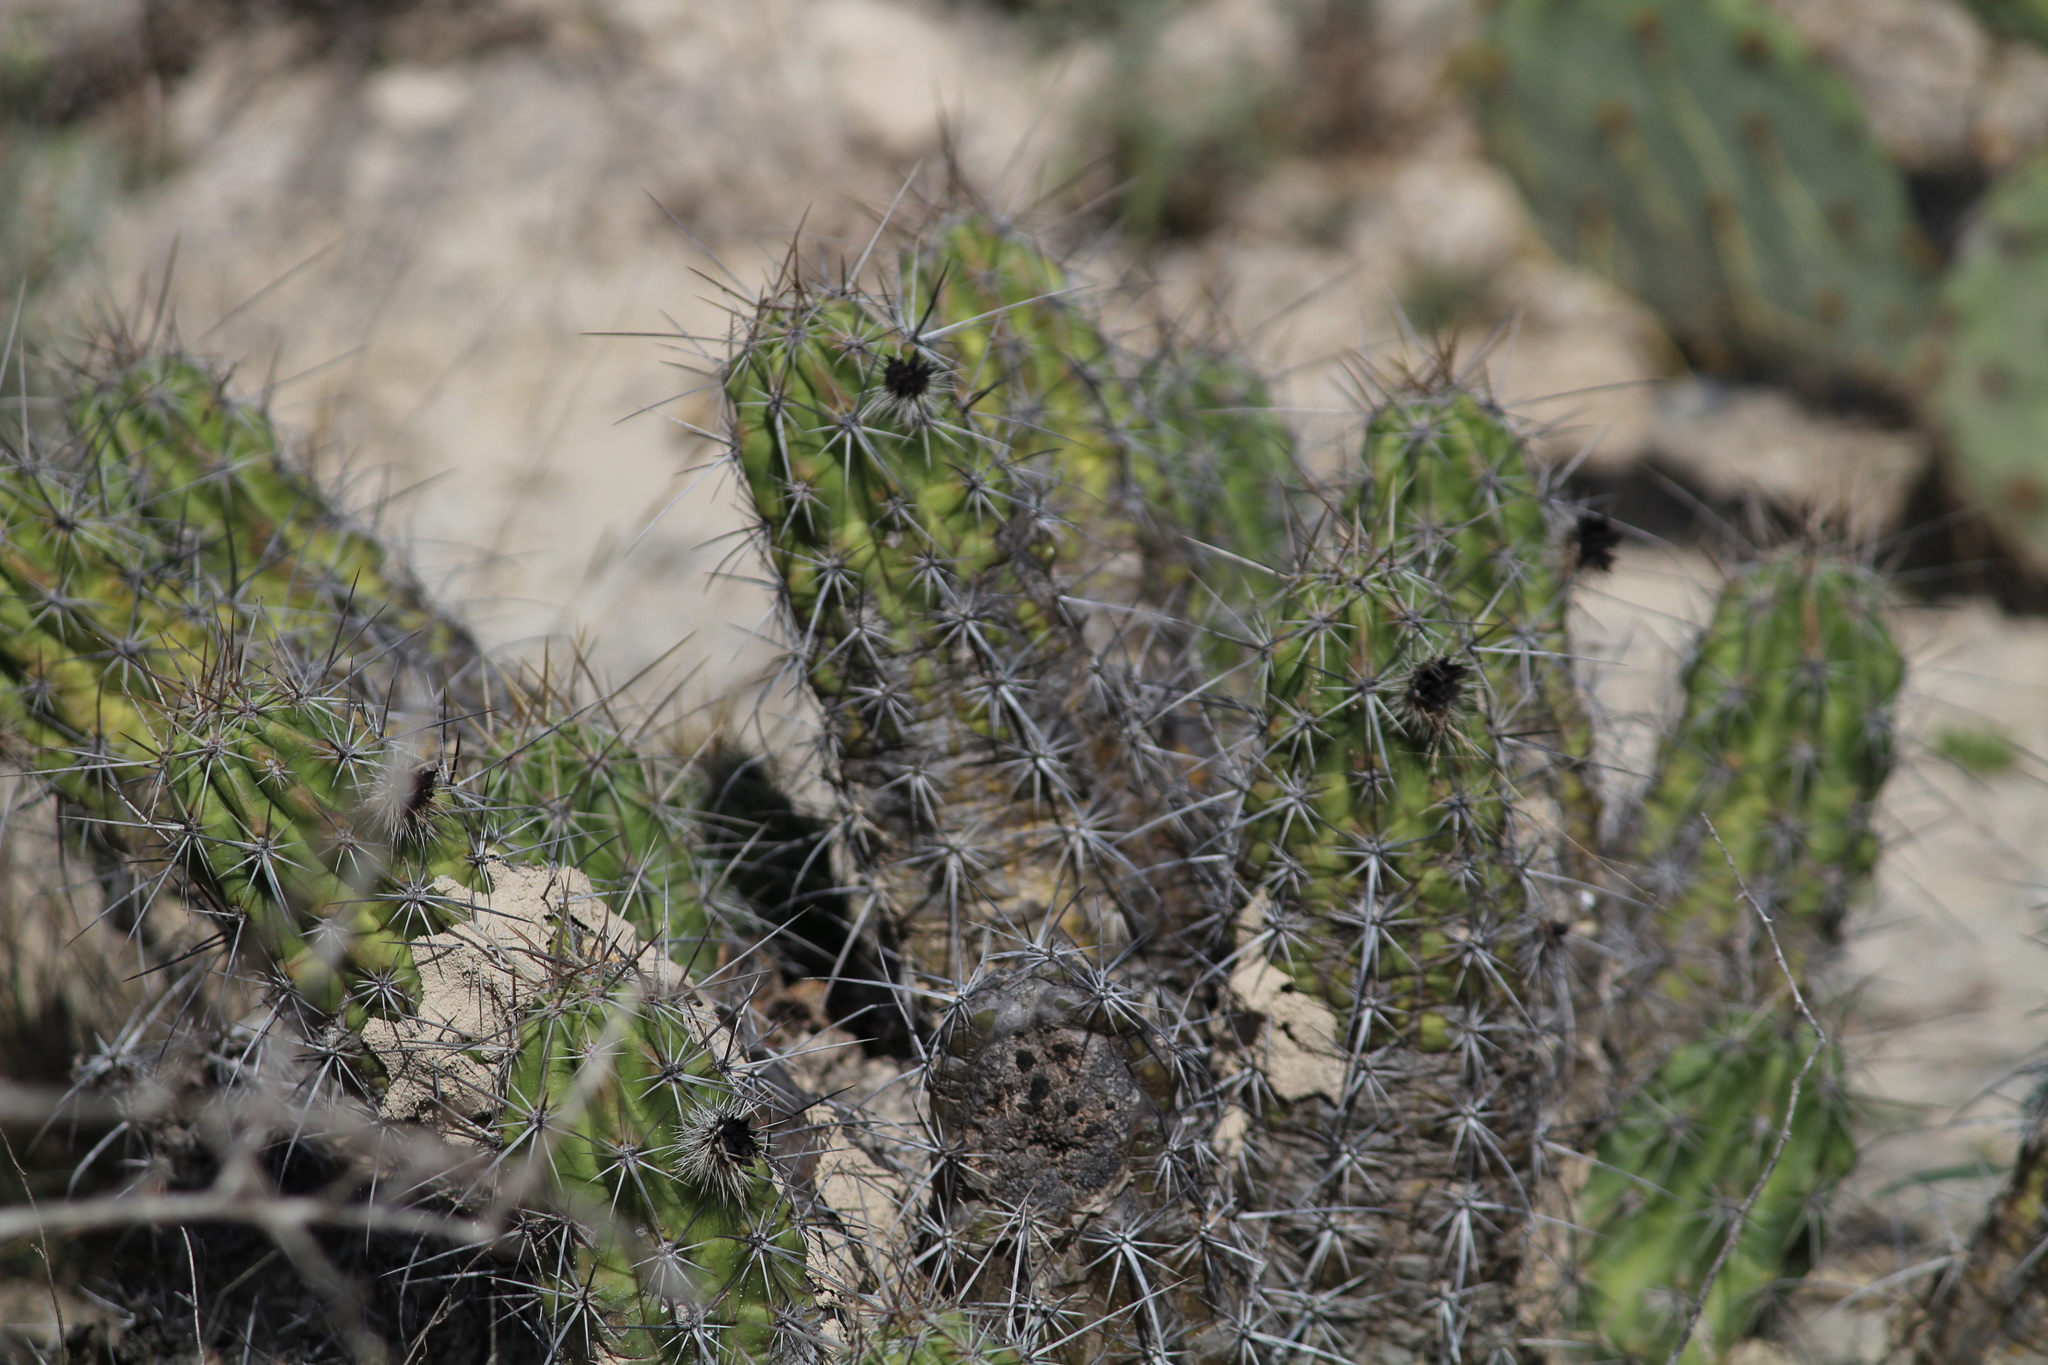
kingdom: Plantae
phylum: Tracheophyta
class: Magnoliopsida
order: Caryophyllales
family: Cactaceae
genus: Echinocereus
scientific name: Echinocereus enneacanthus
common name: Pitaya
